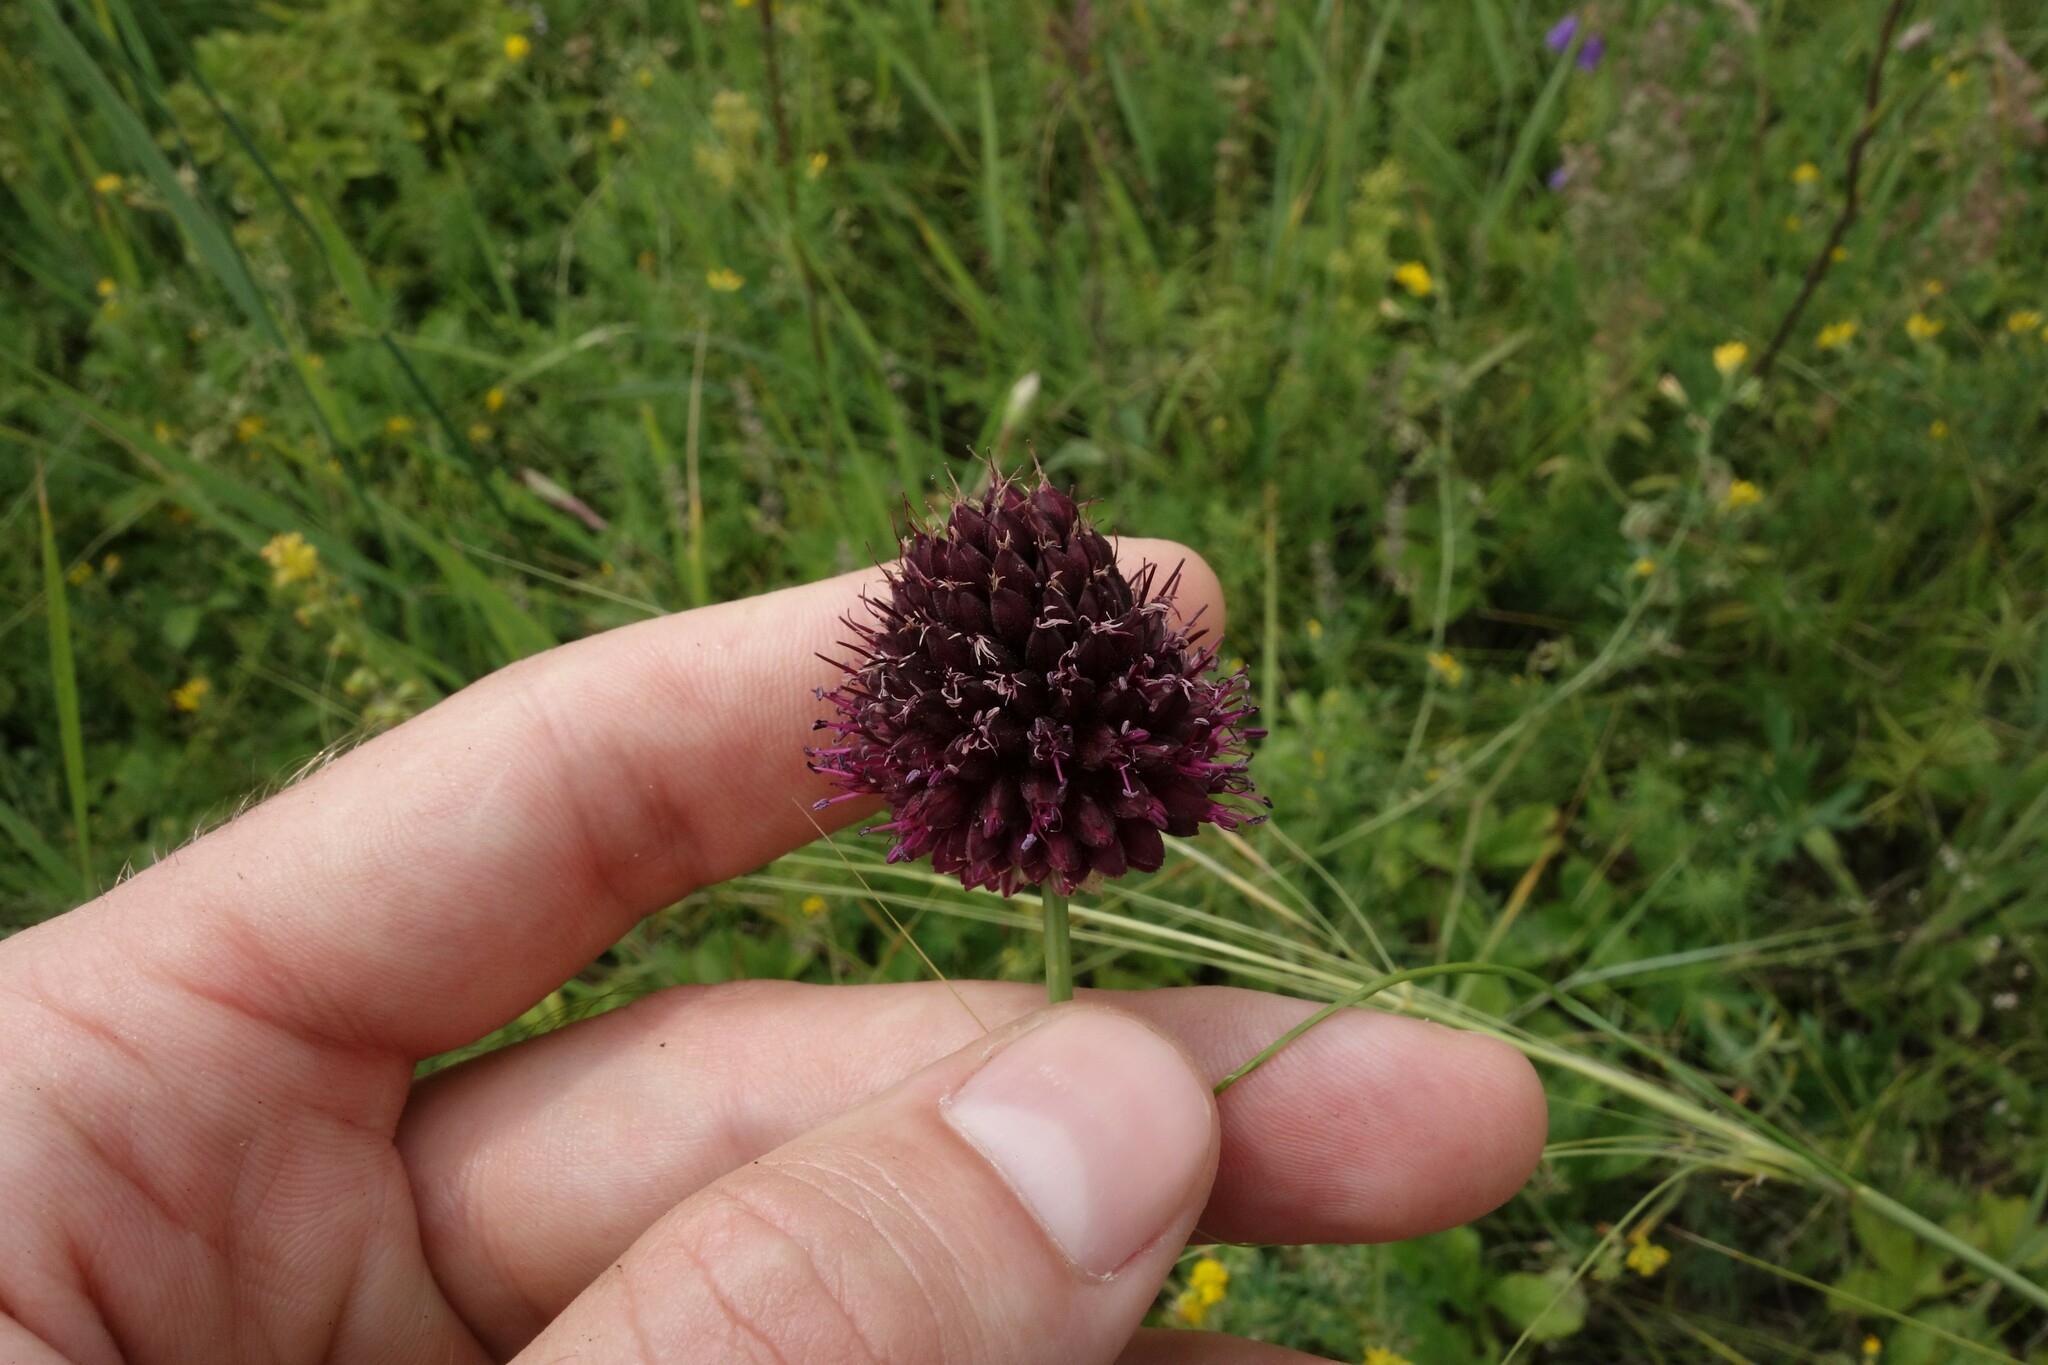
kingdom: Plantae
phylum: Tracheophyta
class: Liliopsida
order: Asparagales
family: Amaryllidaceae
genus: Allium
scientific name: Allium sphaerocephalon
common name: Round-headed leek
